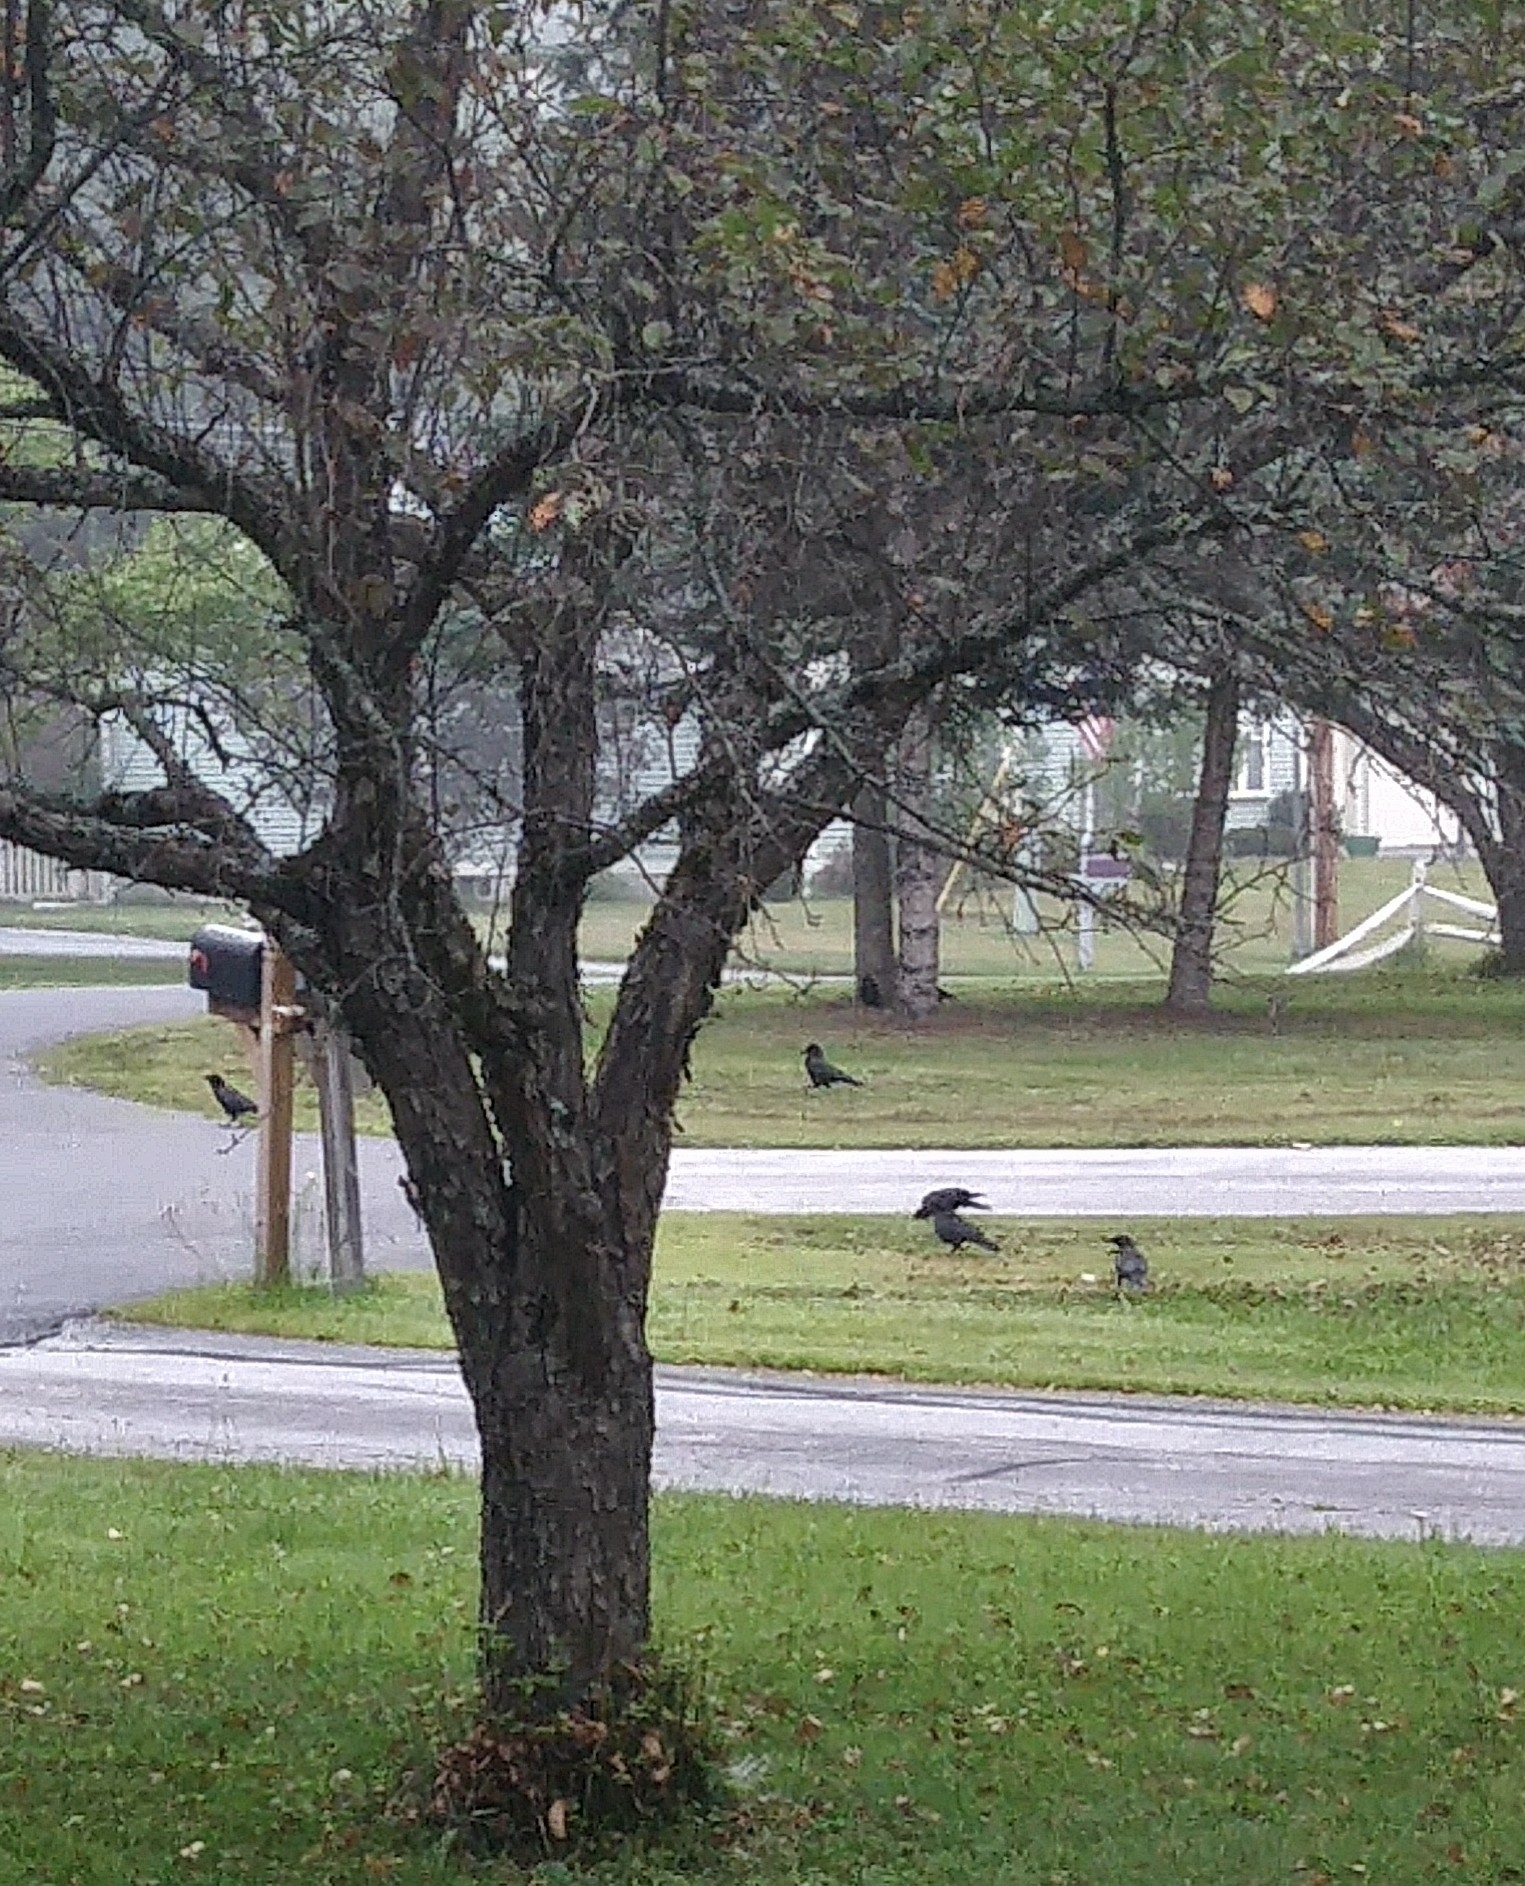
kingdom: Animalia
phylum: Chordata
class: Aves
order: Passeriformes
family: Corvidae
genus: Corvus
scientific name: Corvus brachyrhynchos
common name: American crow
